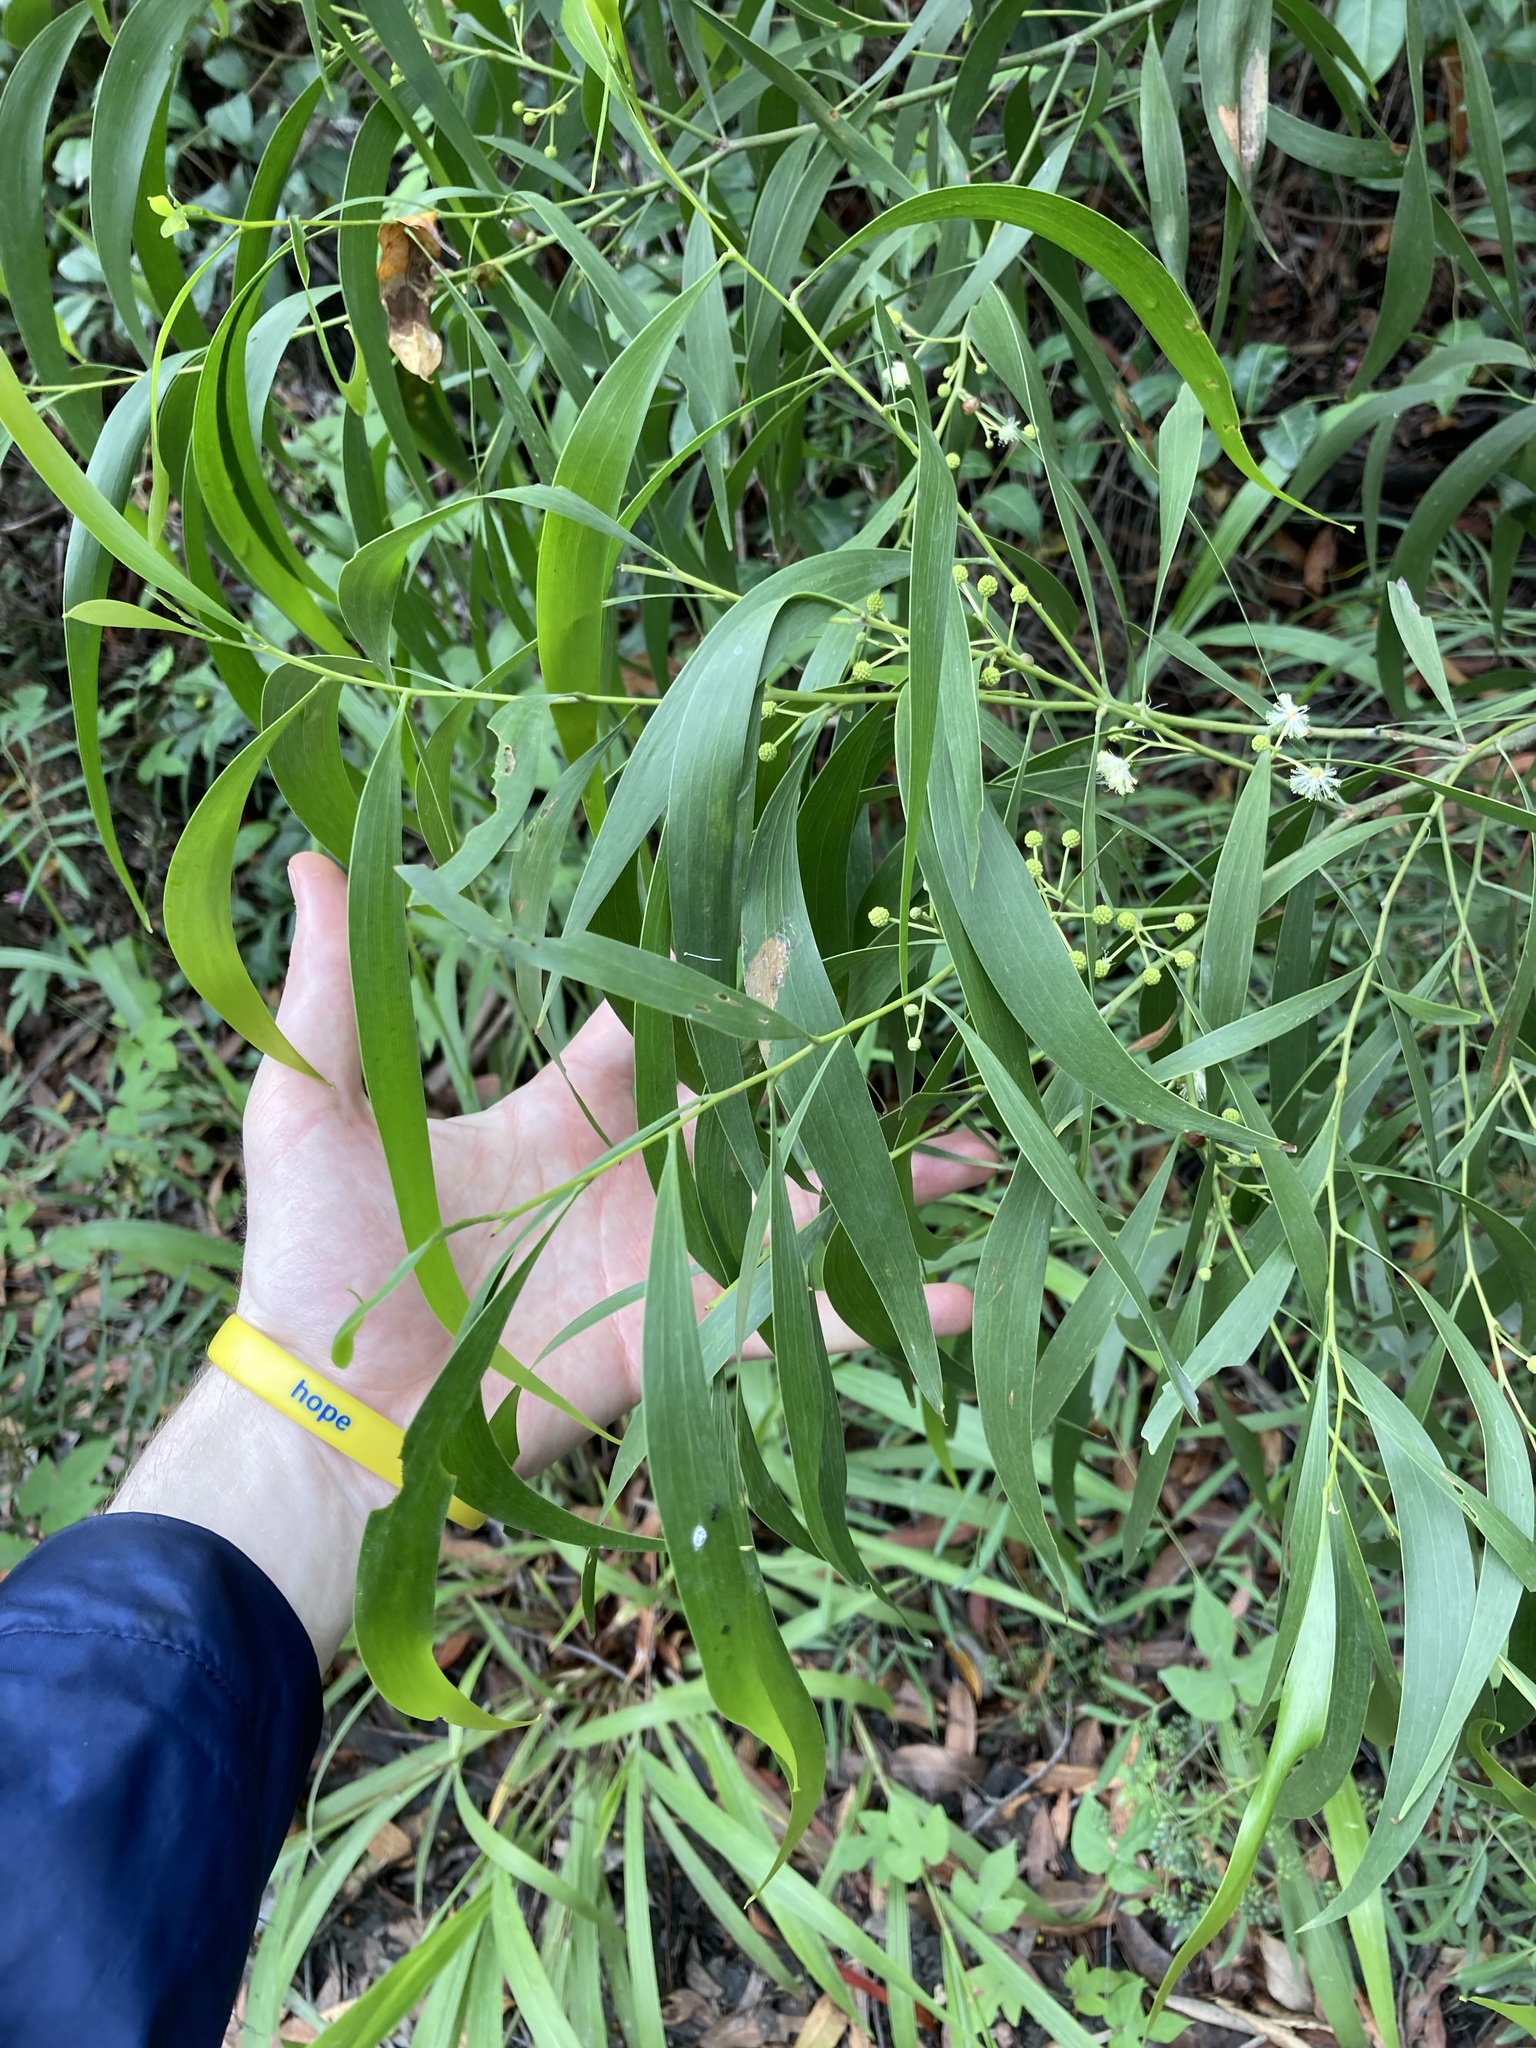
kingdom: Plantae
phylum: Tracheophyta
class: Magnoliopsida
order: Fabales
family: Fabaceae
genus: Acacia
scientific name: Acacia implexa
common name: Black wattle
